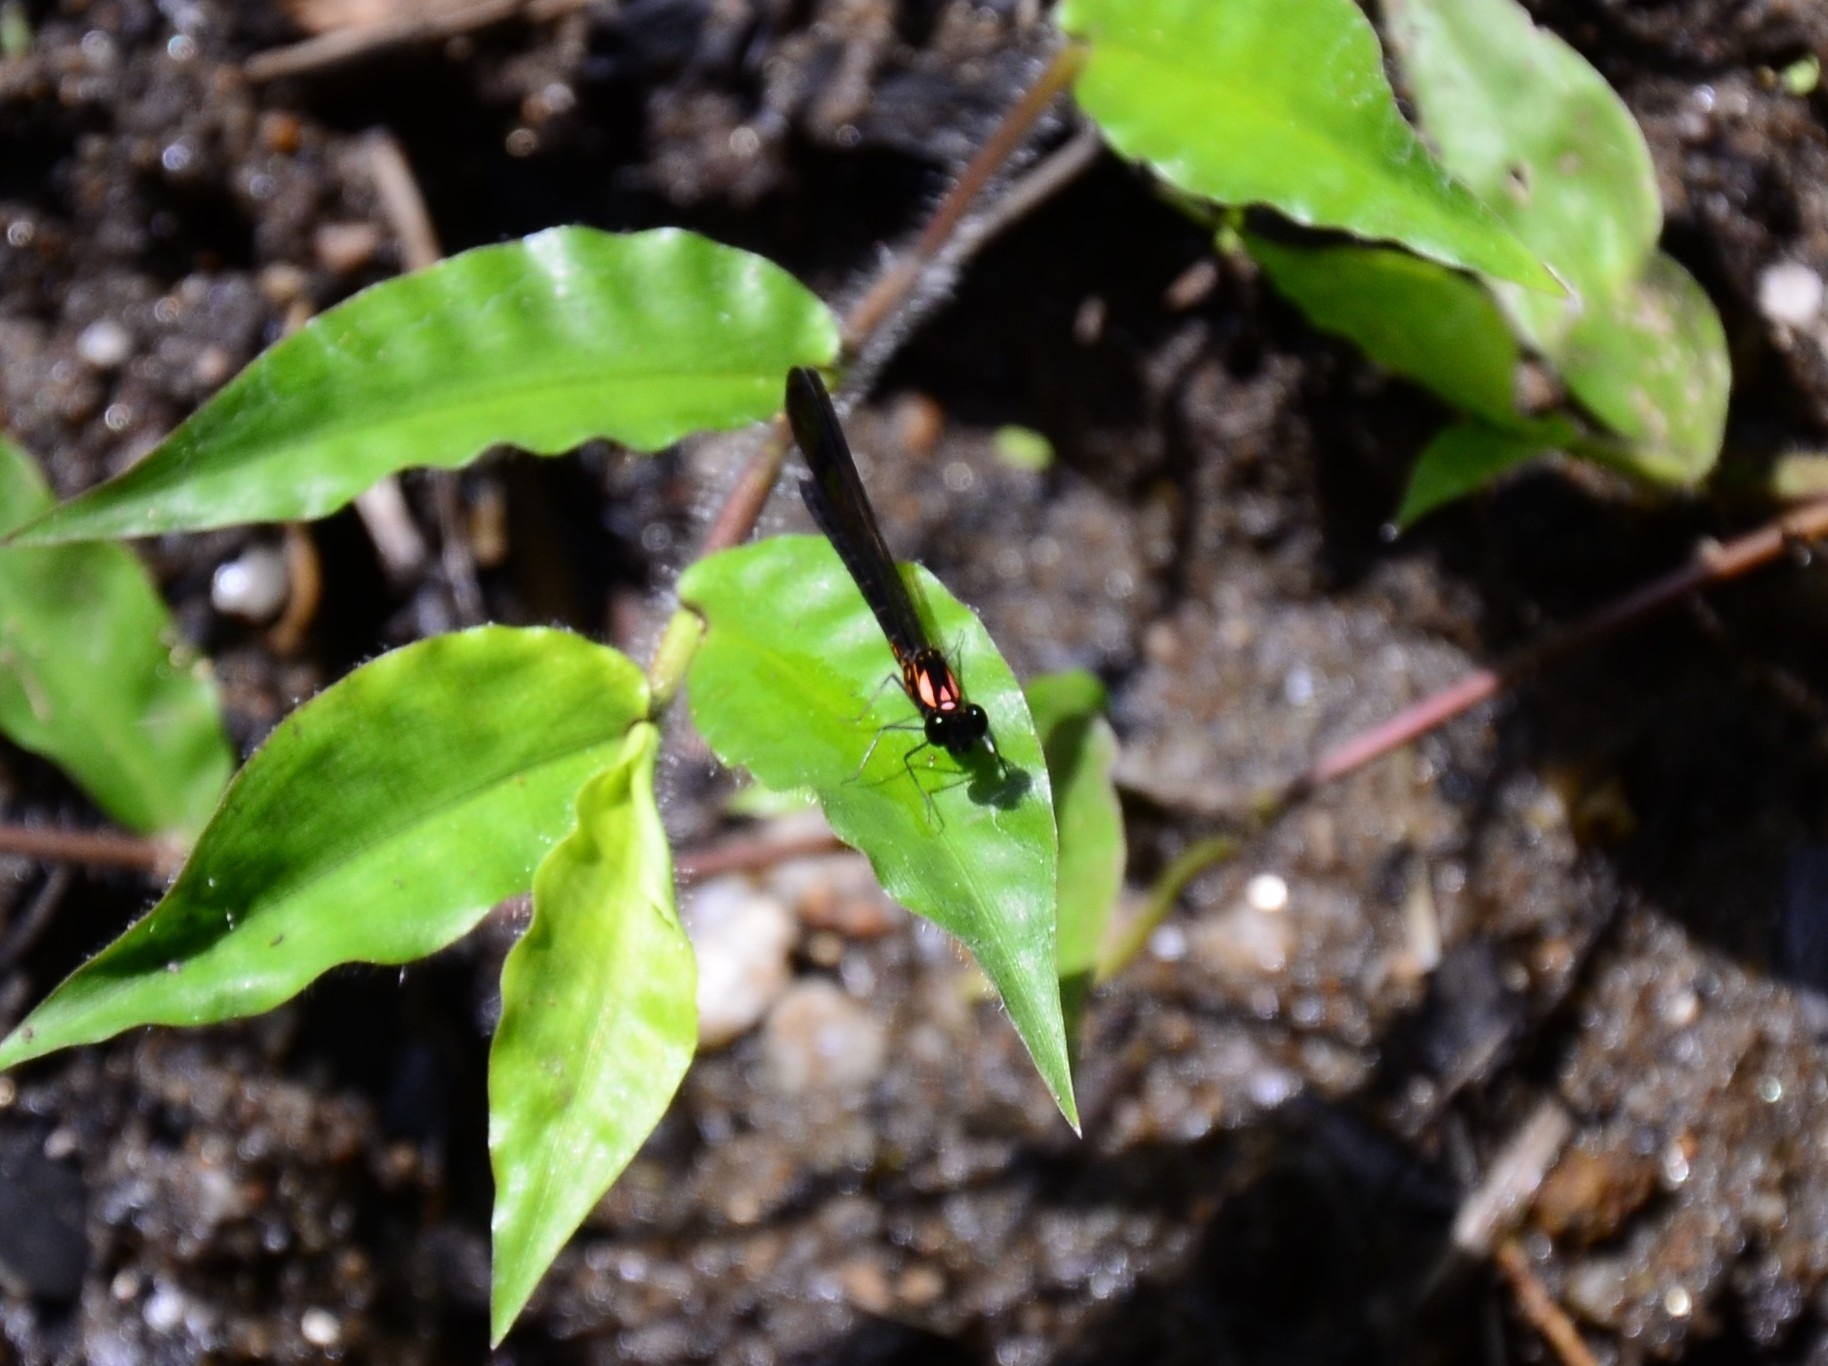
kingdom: Animalia
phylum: Arthropoda
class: Insecta
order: Odonata
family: Chlorocyphidae
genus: Heliocypha
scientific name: Heliocypha bisignata
